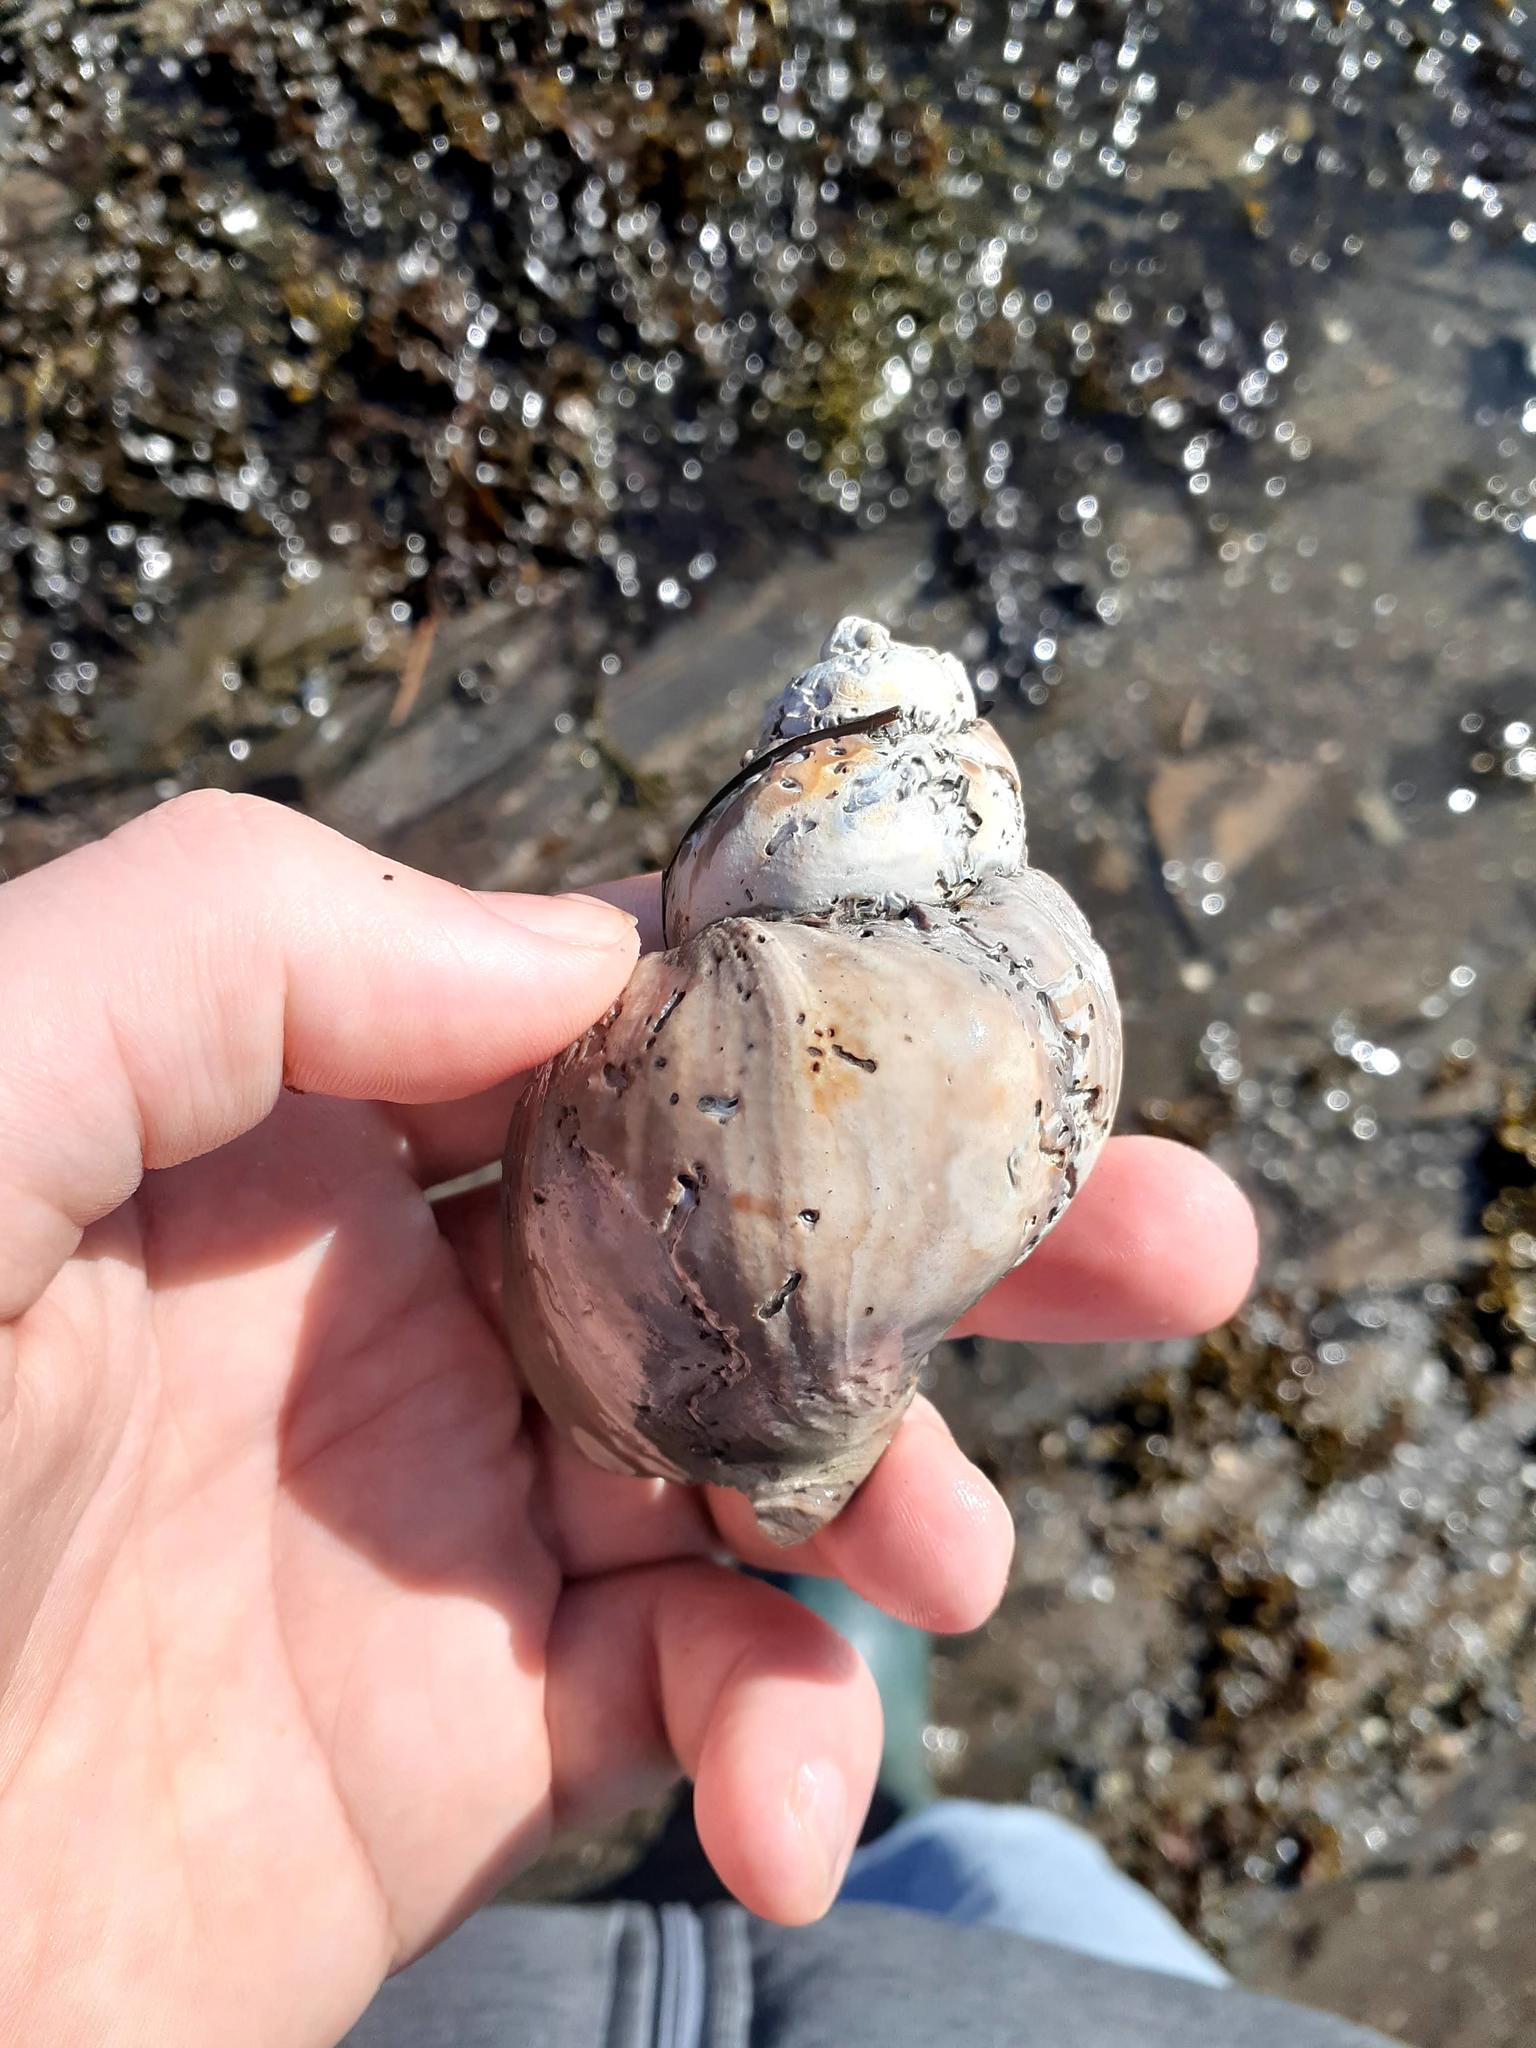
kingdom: Animalia
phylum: Mollusca
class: Gastropoda
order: Neogastropoda
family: Buccinidae
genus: Buccinum
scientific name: Buccinum undatum
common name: Common whelk
